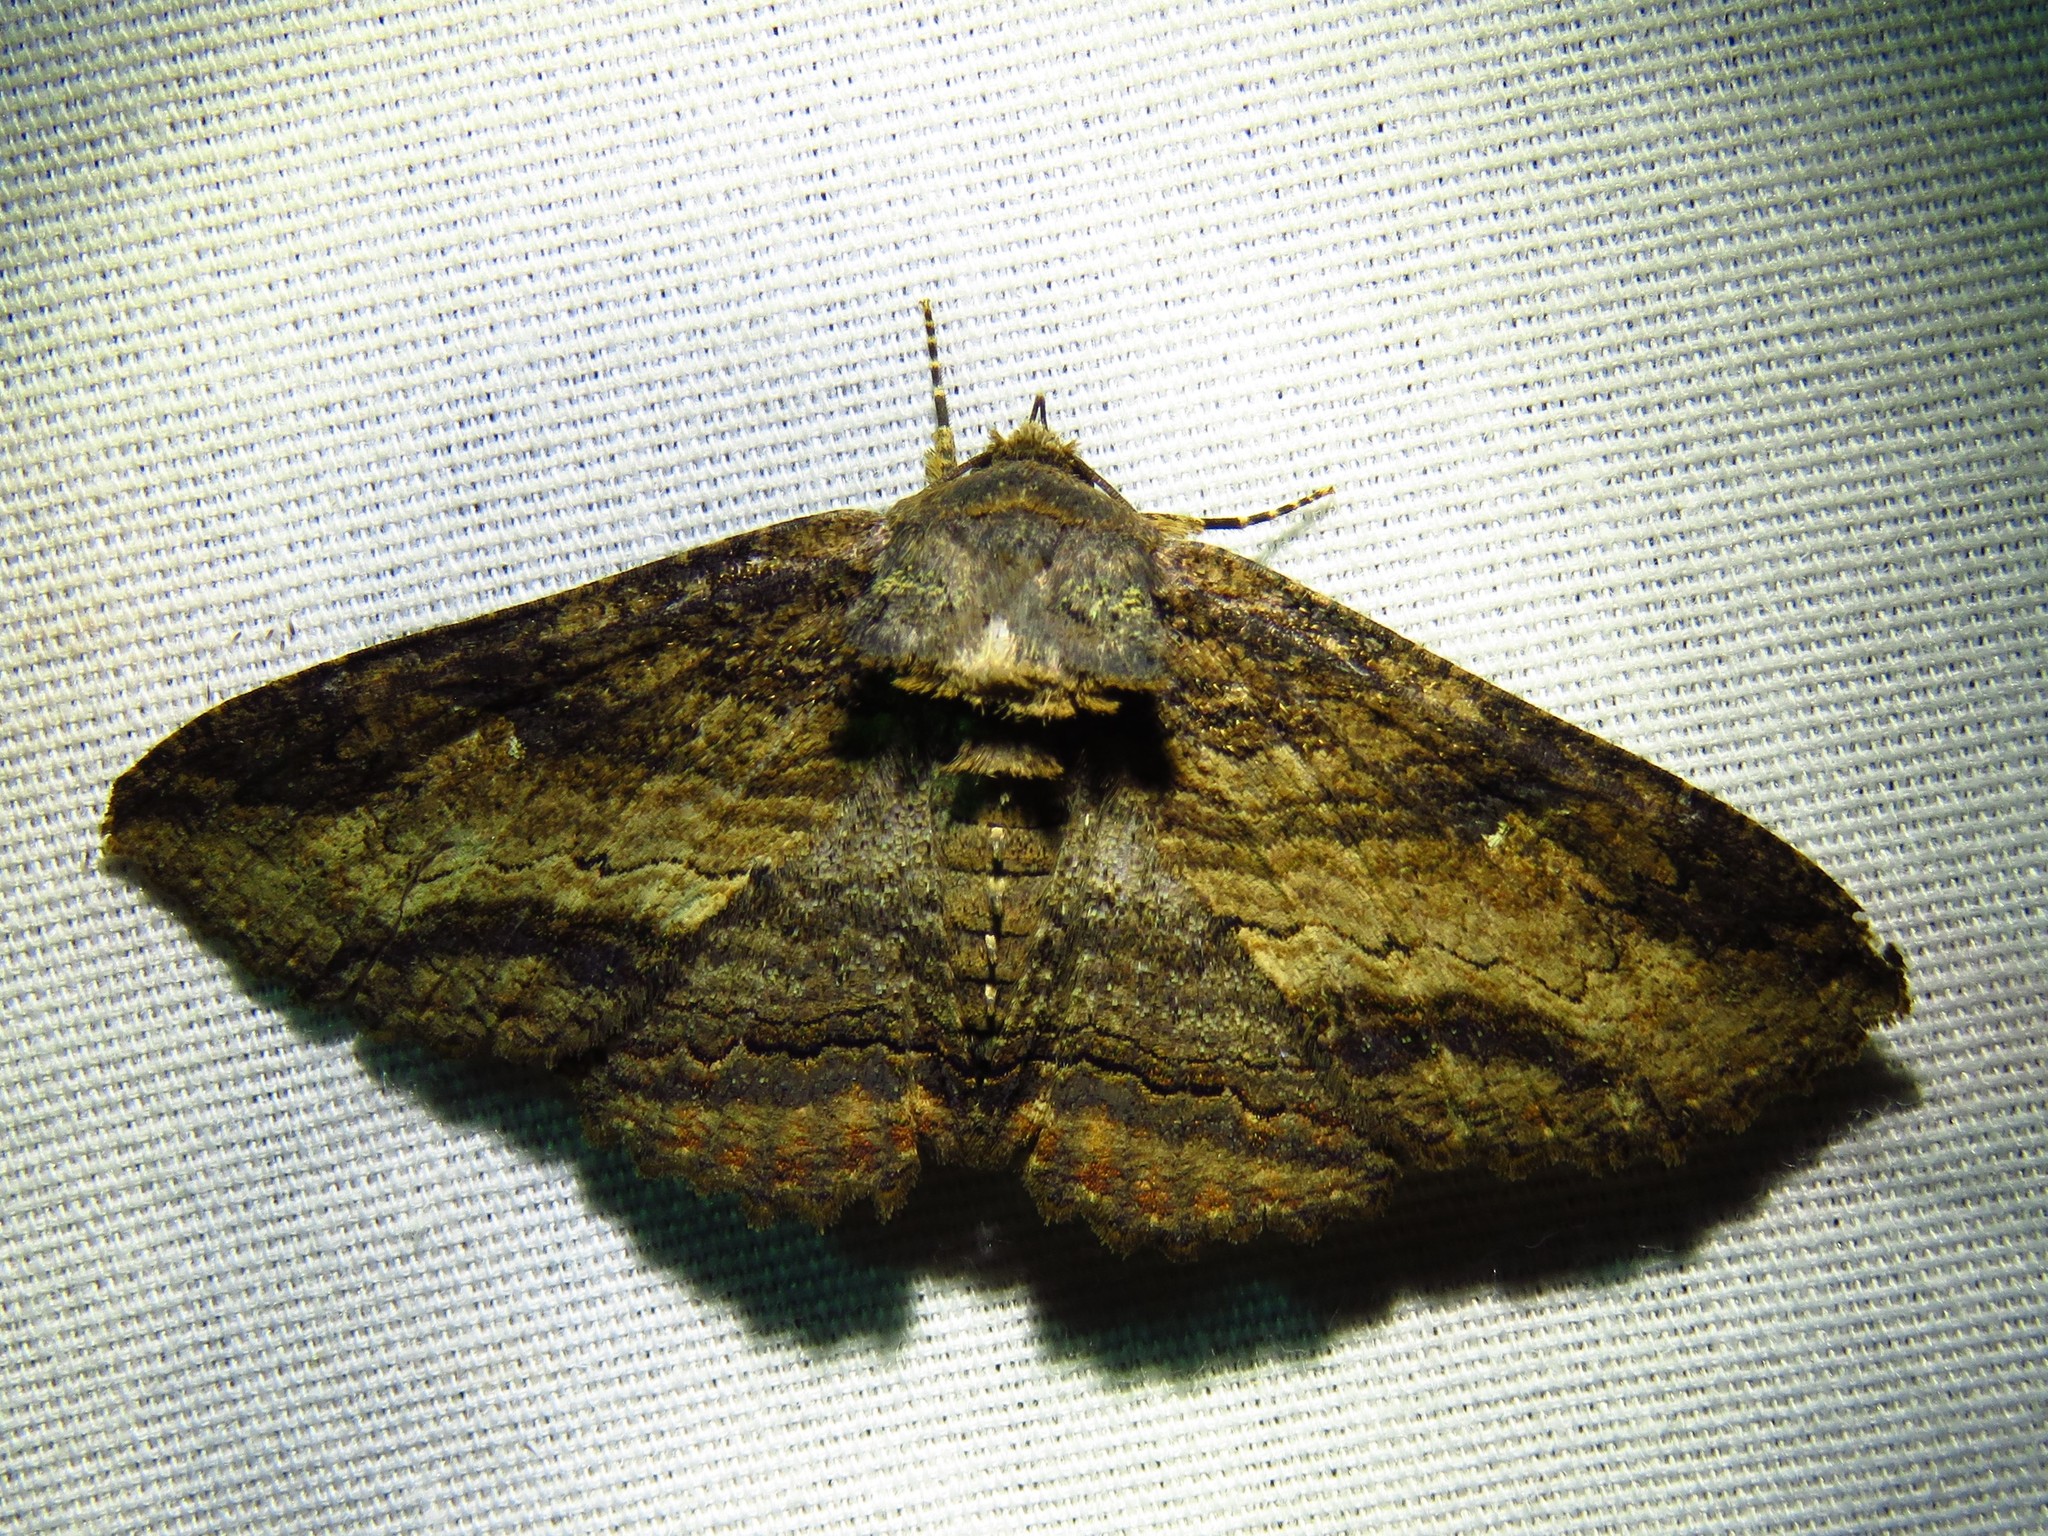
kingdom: Animalia
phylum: Arthropoda
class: Insecta
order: Lepidoptera
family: Erebidae
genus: Zale
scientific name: Zale lunata
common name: Lunate zale moth
